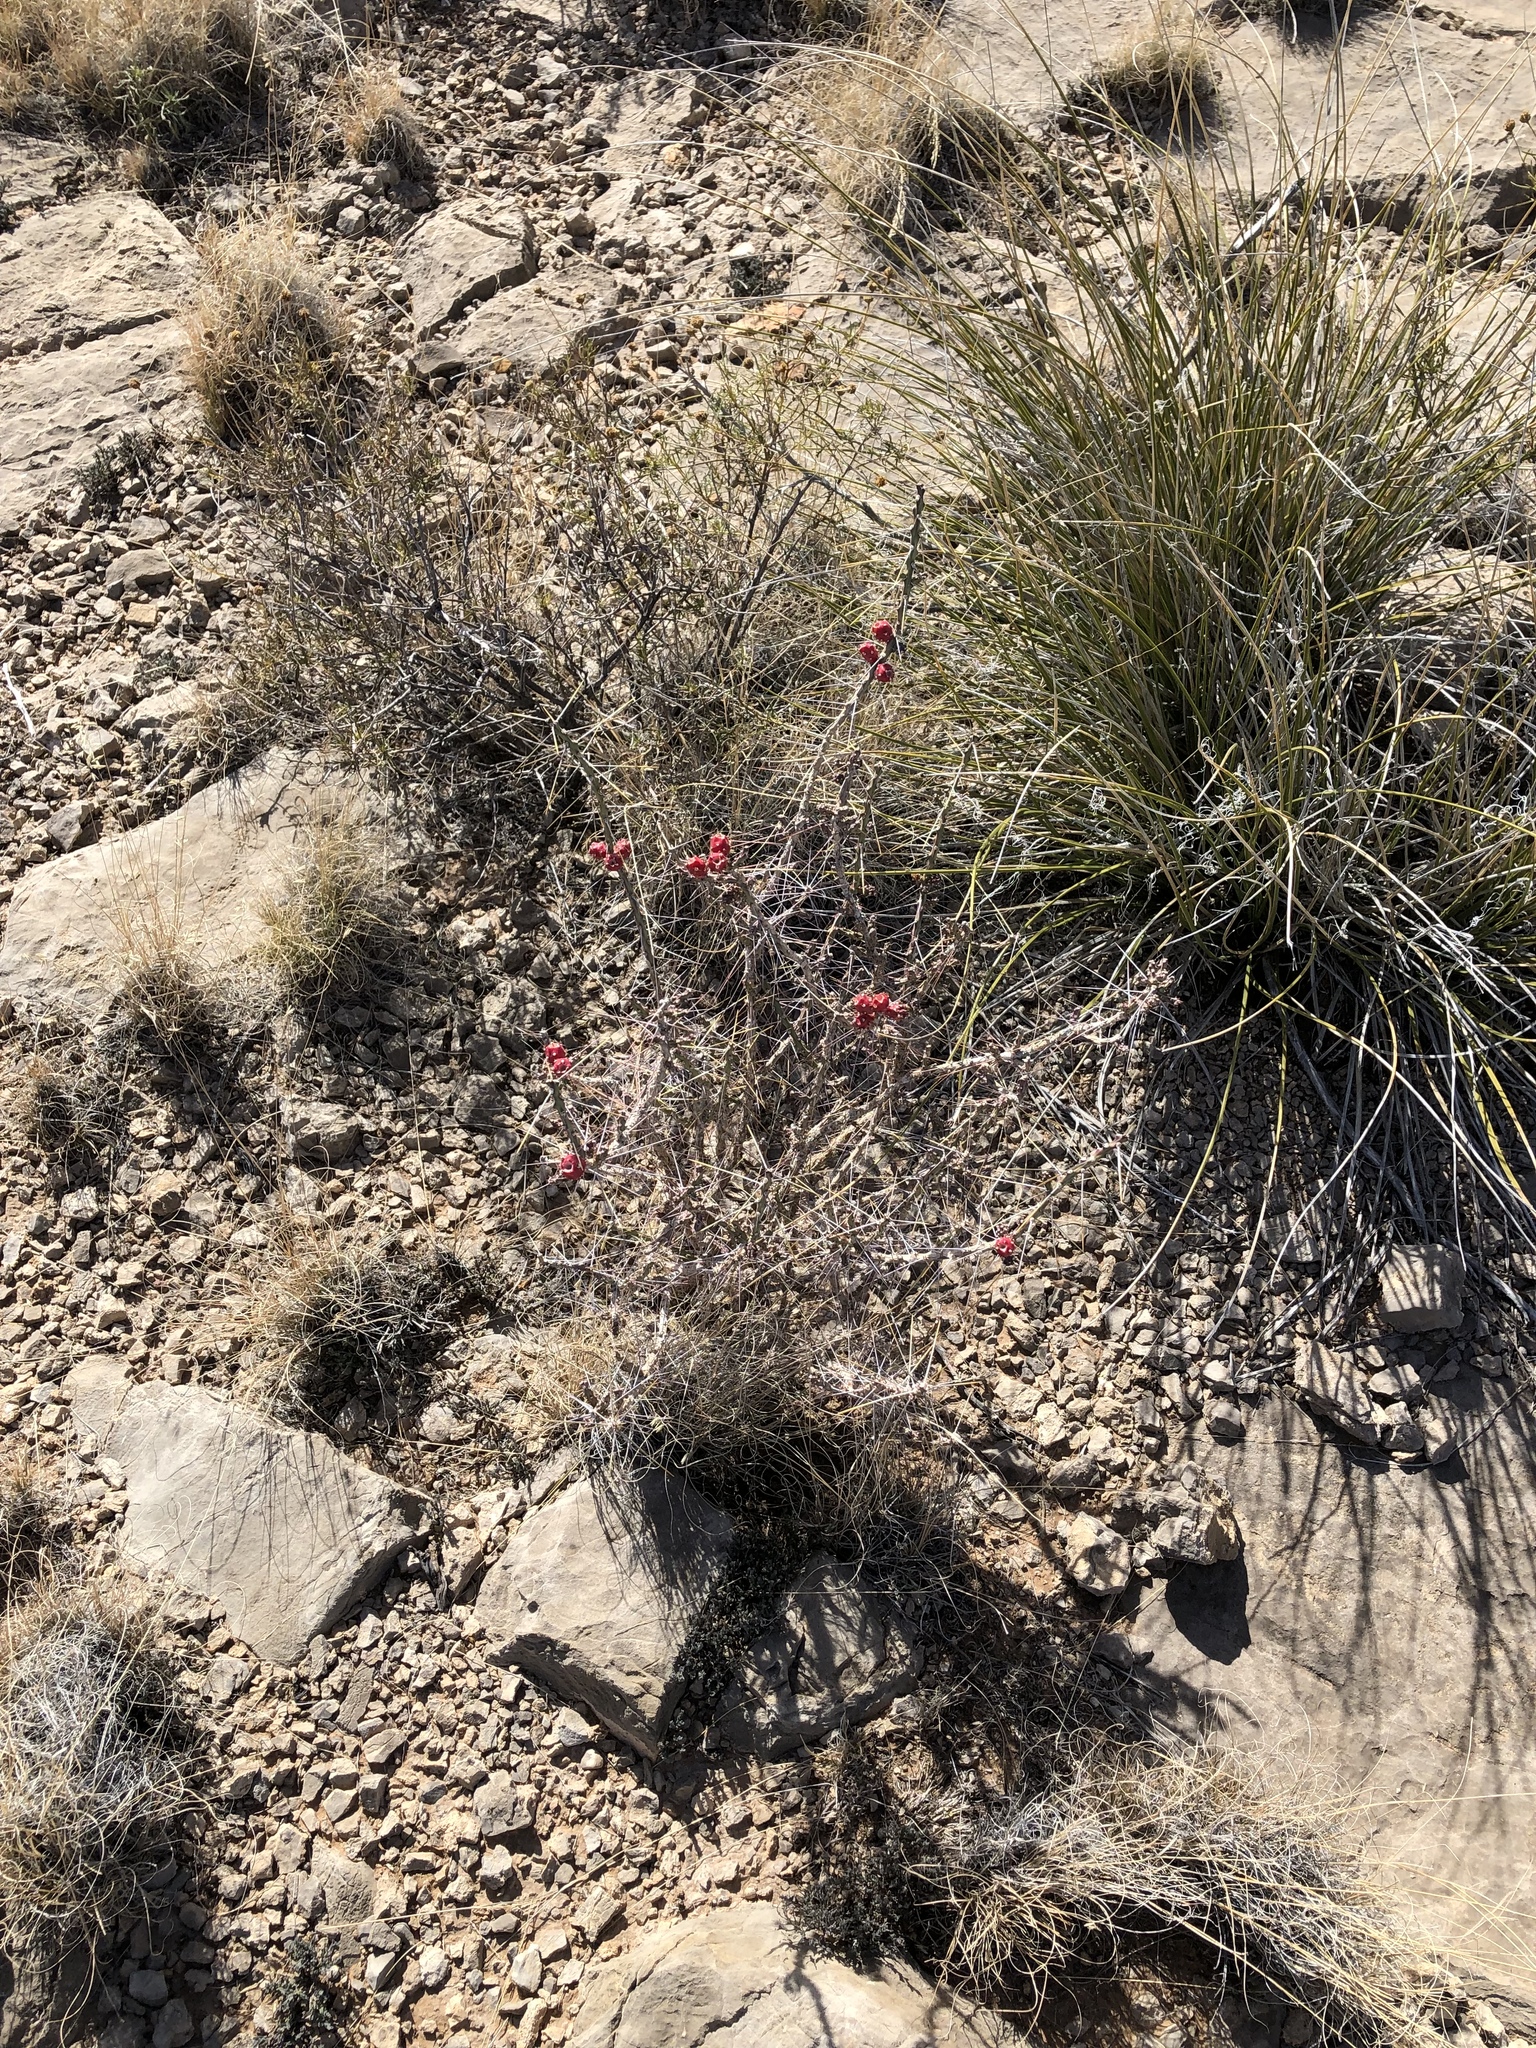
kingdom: Plantae
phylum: Tracheophyta
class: Magnoliopsida
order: Caryophyllales
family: Cactaceae
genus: Cylindropuntia
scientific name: Cylindropuntia leptocaulis
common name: Christmas cactus
